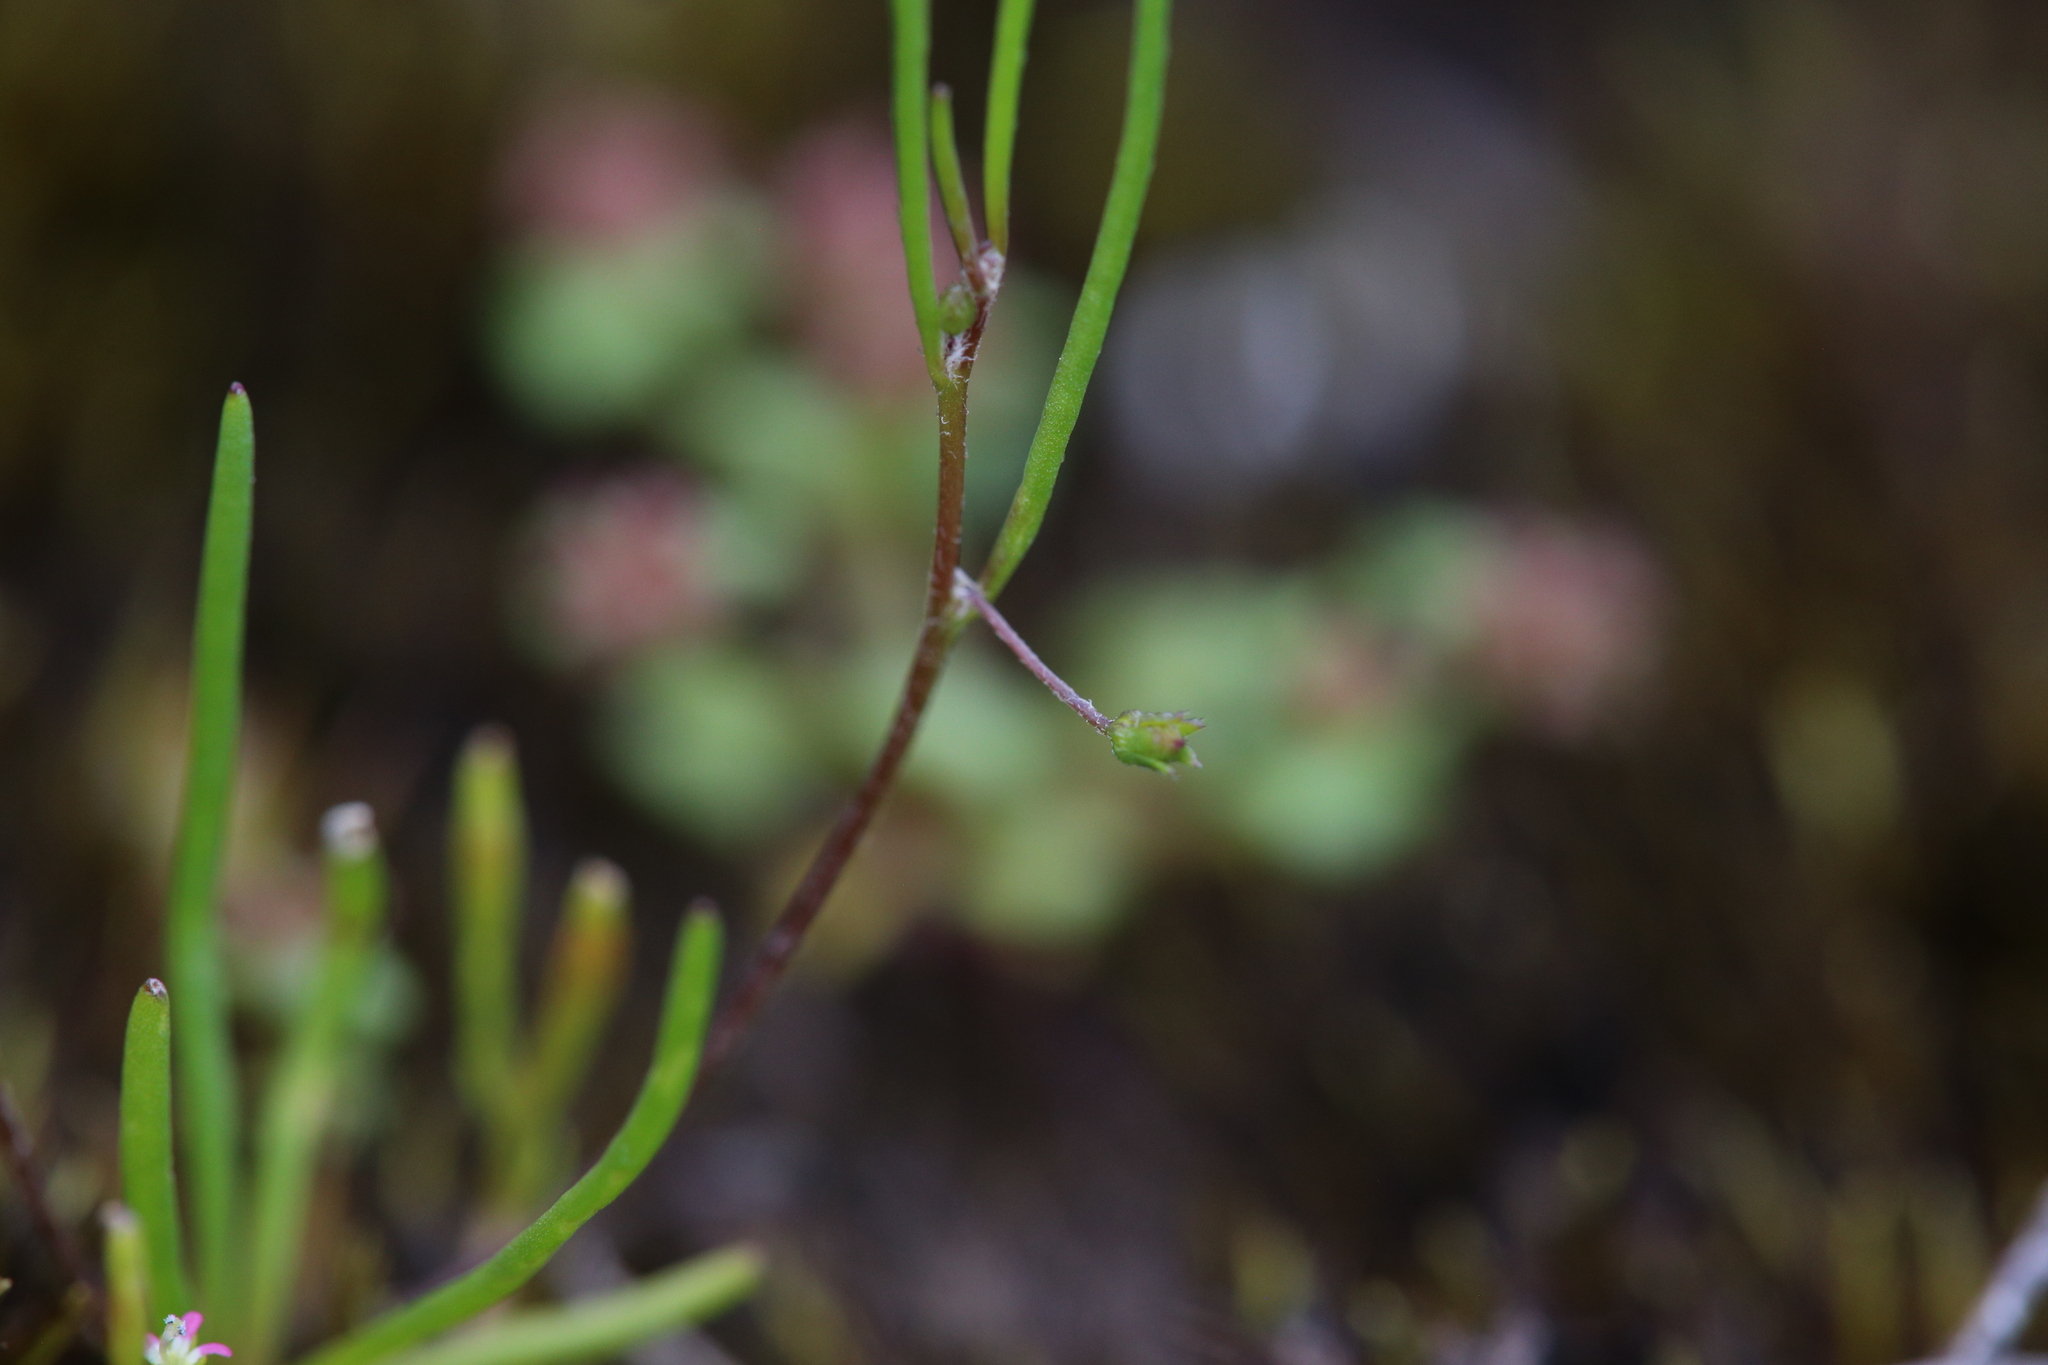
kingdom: Plantae
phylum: Tracheophyta
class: Magnoliopsida
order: Asterales
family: Goodeniaceae
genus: Goodenia
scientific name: Goodenia micrantha
